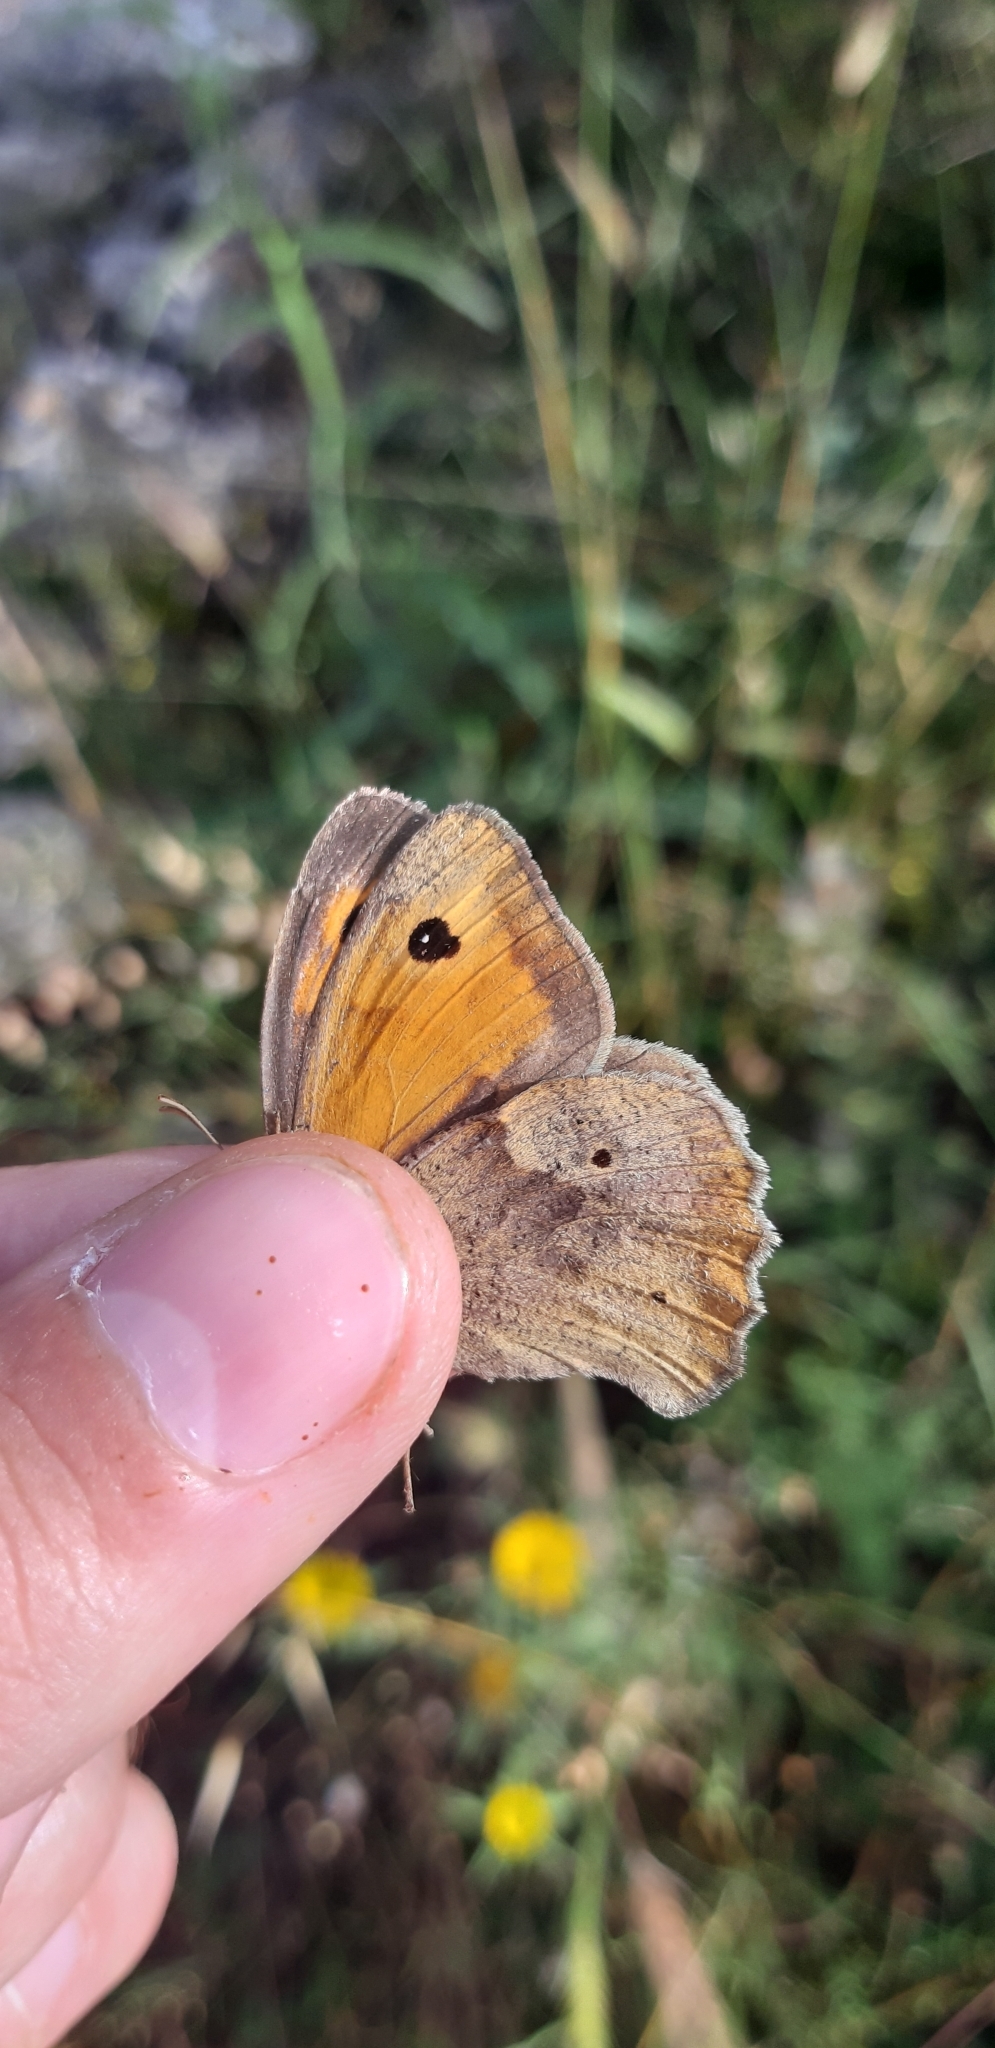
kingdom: Animalia
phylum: Arthropoda
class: Insecta
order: Lepidoptera
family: Nymphalidae
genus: Maniola
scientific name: Maniola jurtina
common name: Meadow brown
